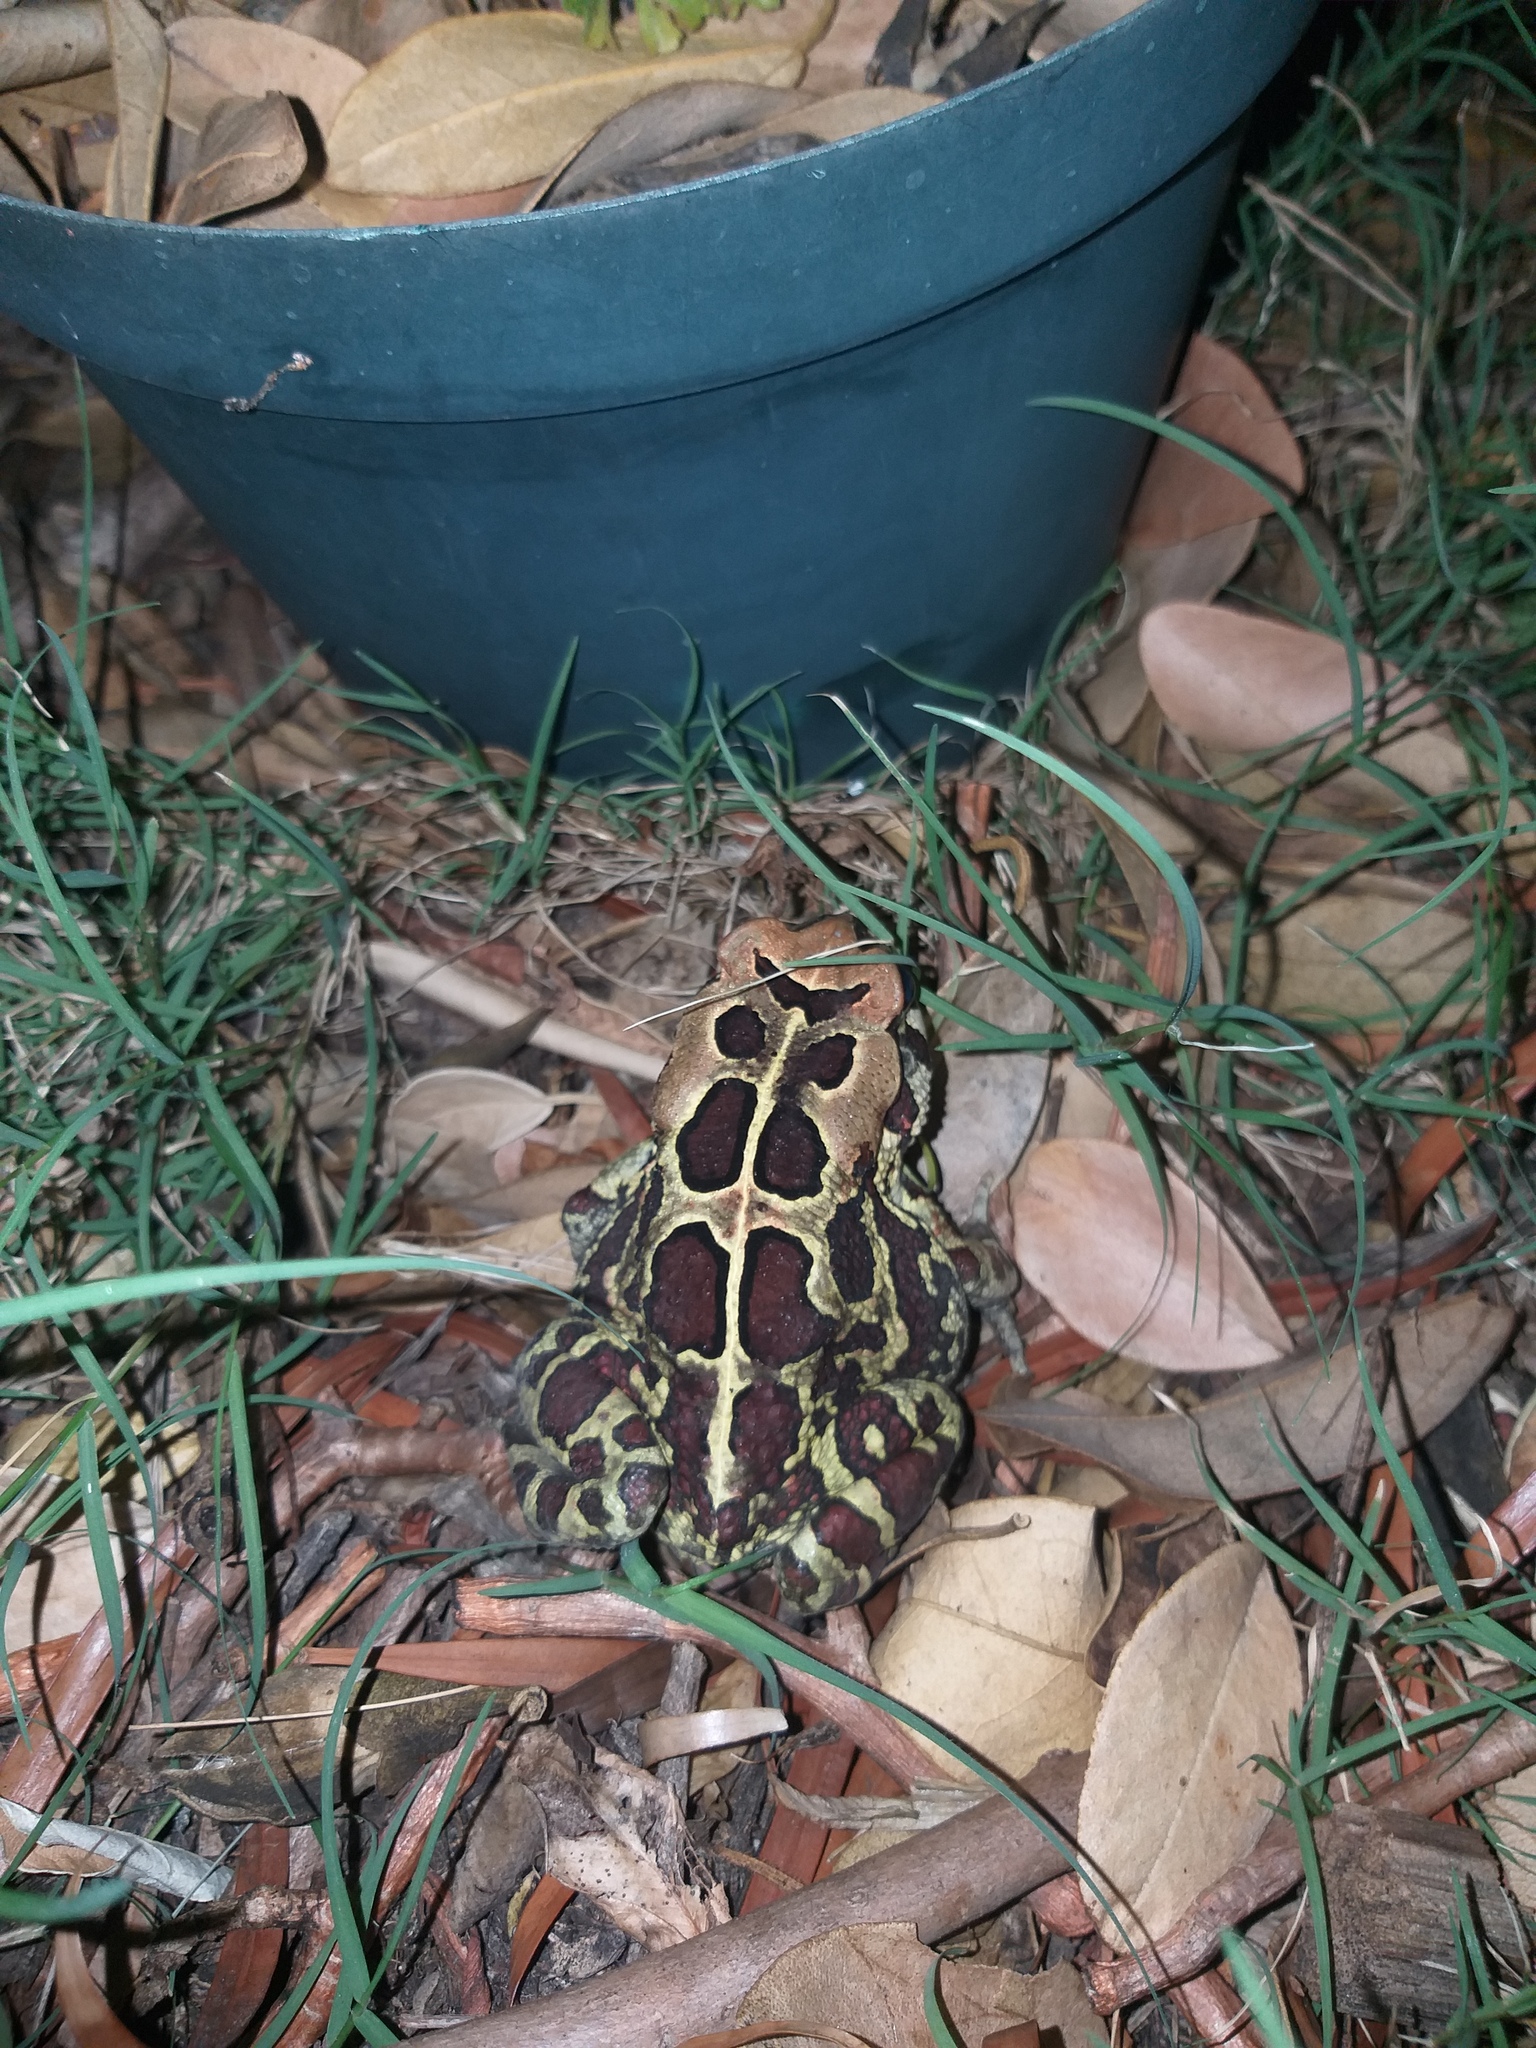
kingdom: Animalia
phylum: Chordata
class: Amphibia
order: Anura
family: Bufonidae
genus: Sclerophrys
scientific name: Sclerophrys pantherina
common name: Panther toad
